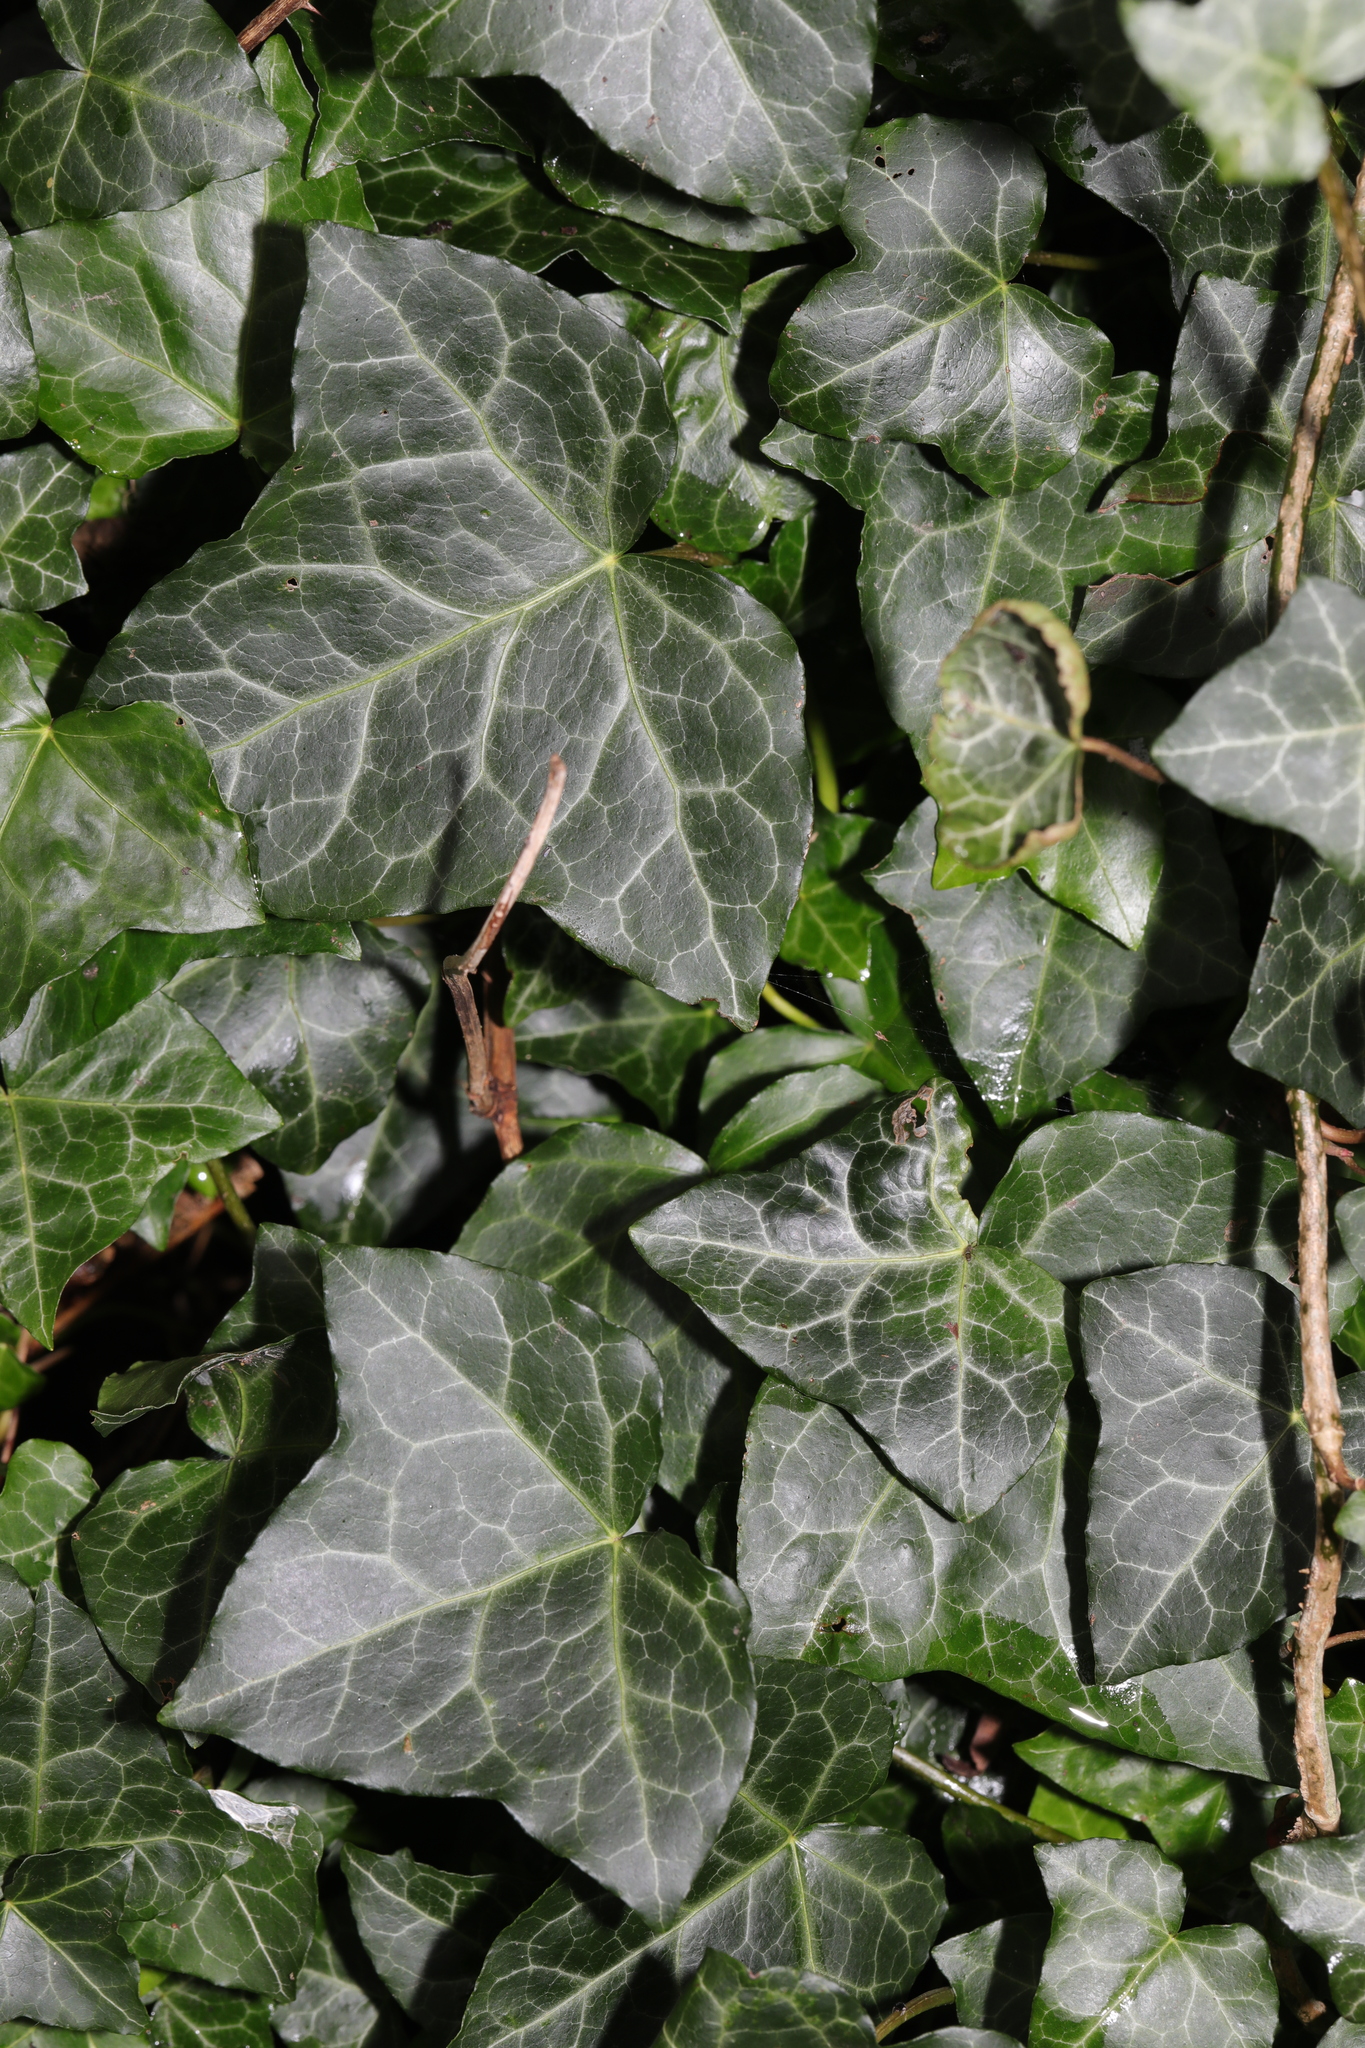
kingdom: Plantae
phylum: Tracheophyta
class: Magnoliopsida
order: Apiales
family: Araliaceae
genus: Hedera
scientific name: Hedera helix
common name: Ivy
